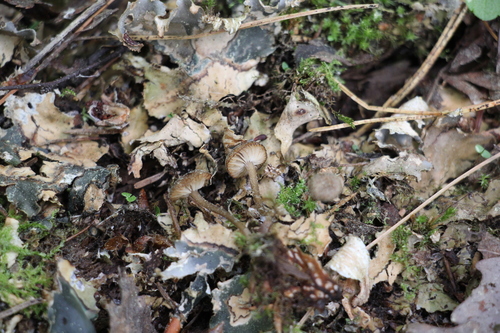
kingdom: Fungi
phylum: Basidiomycota
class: Agaricomycetes
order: Agaricales
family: Hygrophoraceae
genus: Arrhenia
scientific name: Arrhenia peltigerina
